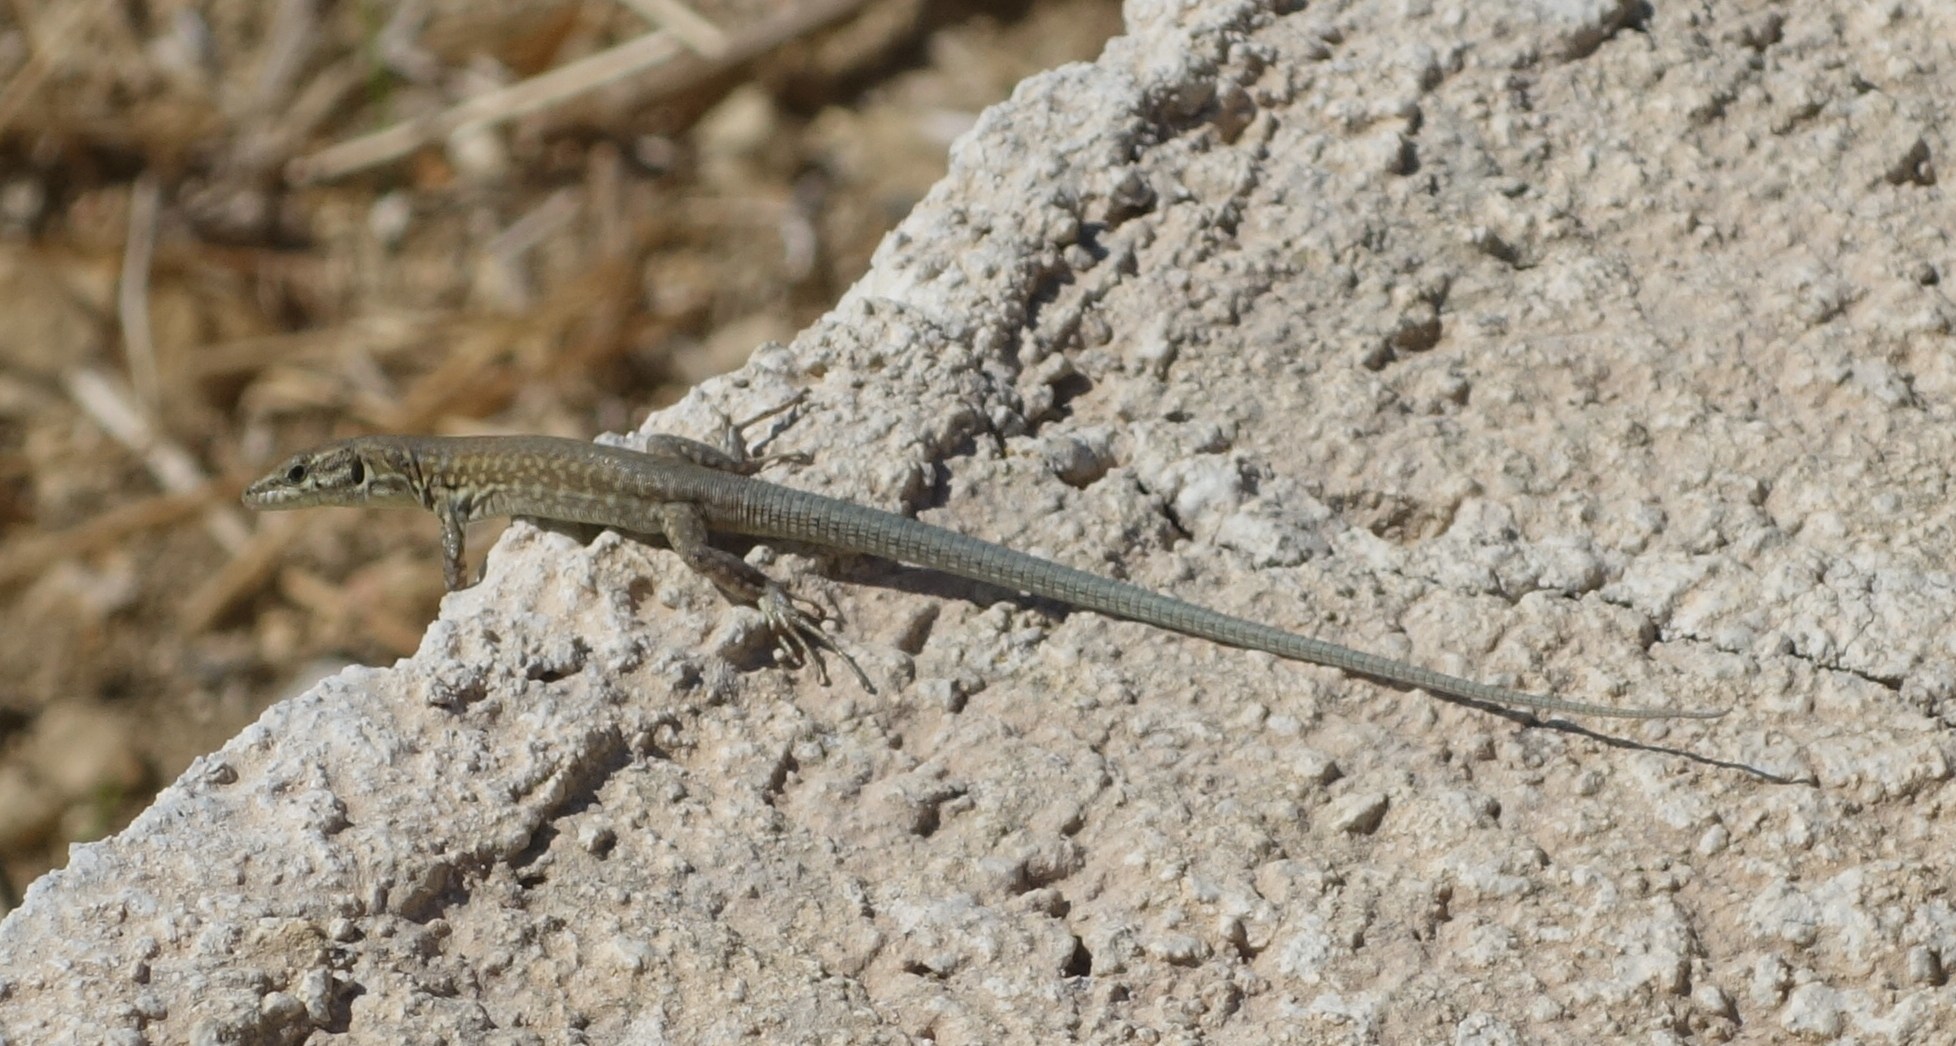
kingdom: Animalia
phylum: Chordata
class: Squamata
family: Lacertidae
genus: Podarcis
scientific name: Podarcis filfolensis
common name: Maltese wall lizard
